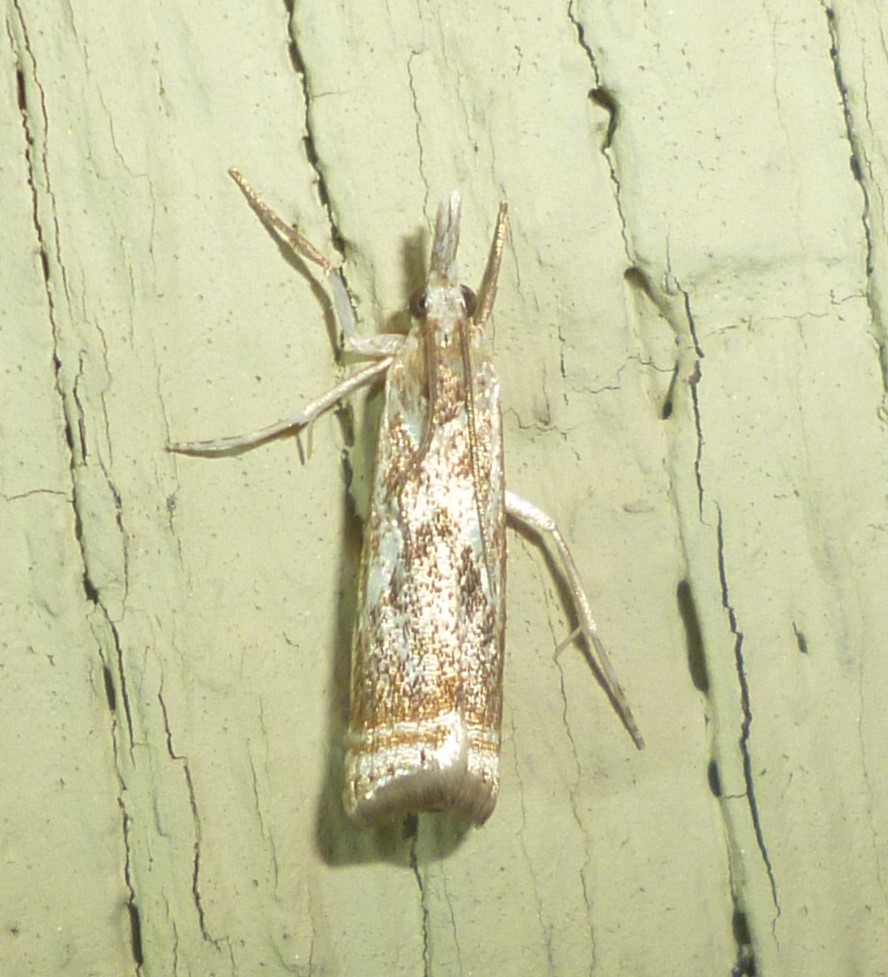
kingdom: Animalia
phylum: Arthropoda
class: Insecta
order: Lepidoptera
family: Crambidae
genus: Microcrambus
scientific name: Microcrambus elegans
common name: Elegant grass-veneer
